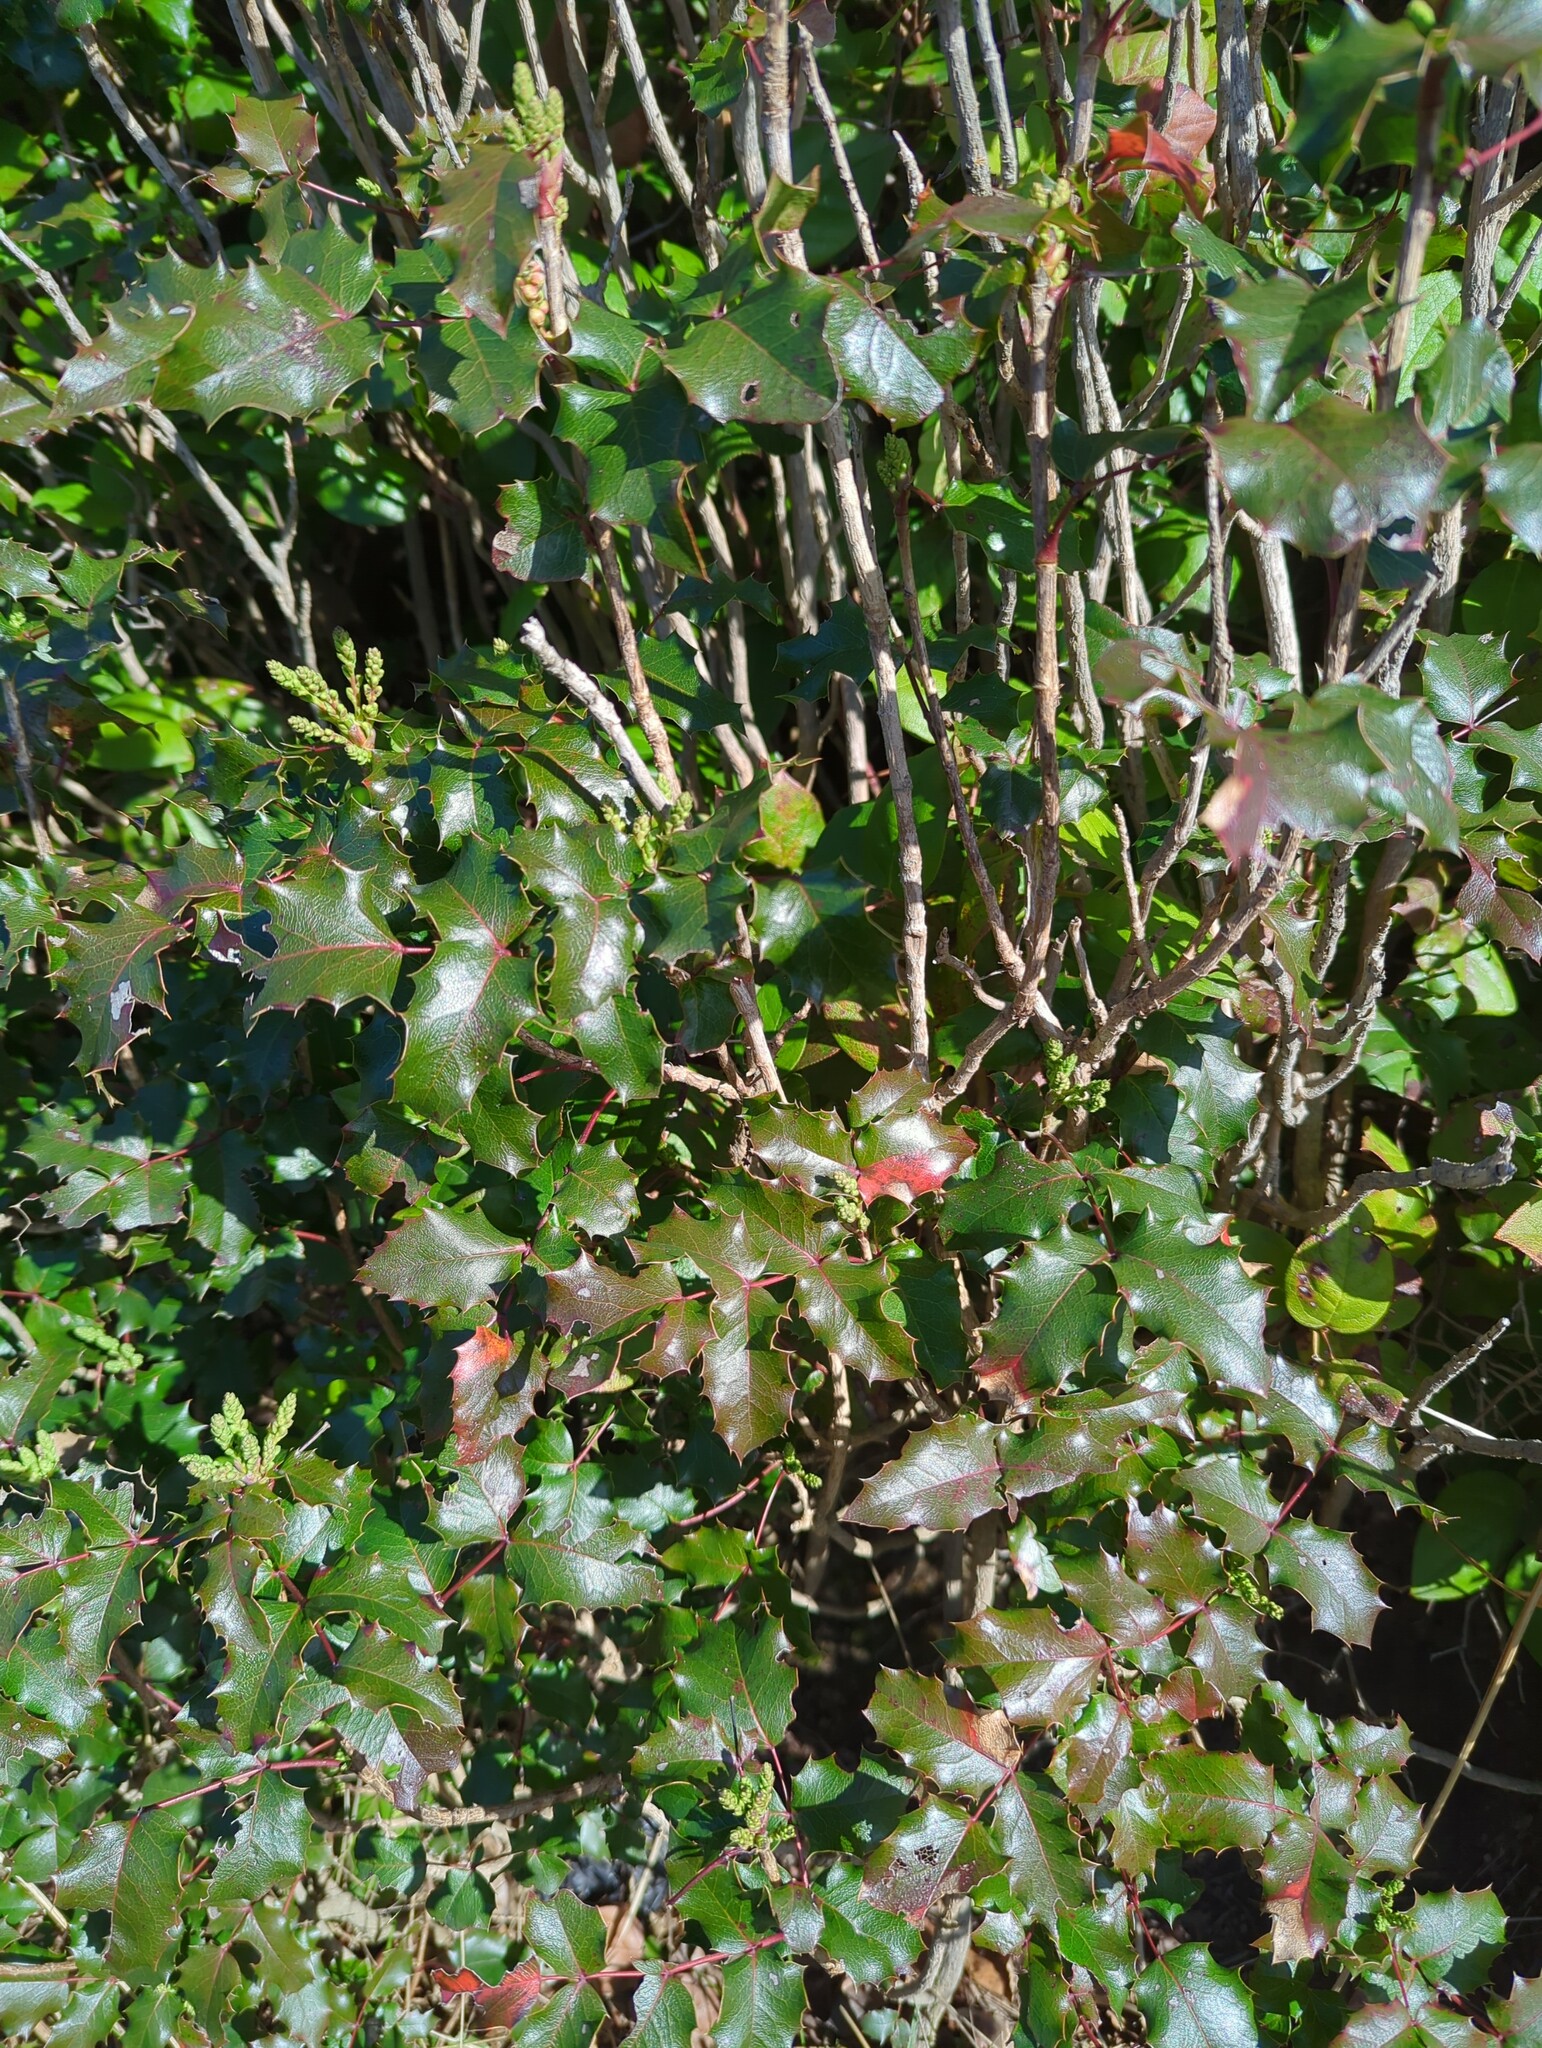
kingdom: Plantae
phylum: Tracheophyta
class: Magnoliopsida
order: Ranunculales
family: Berberidaceae
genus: Mahonia
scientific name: Mahonia aquifolium
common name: Oregon-grape
